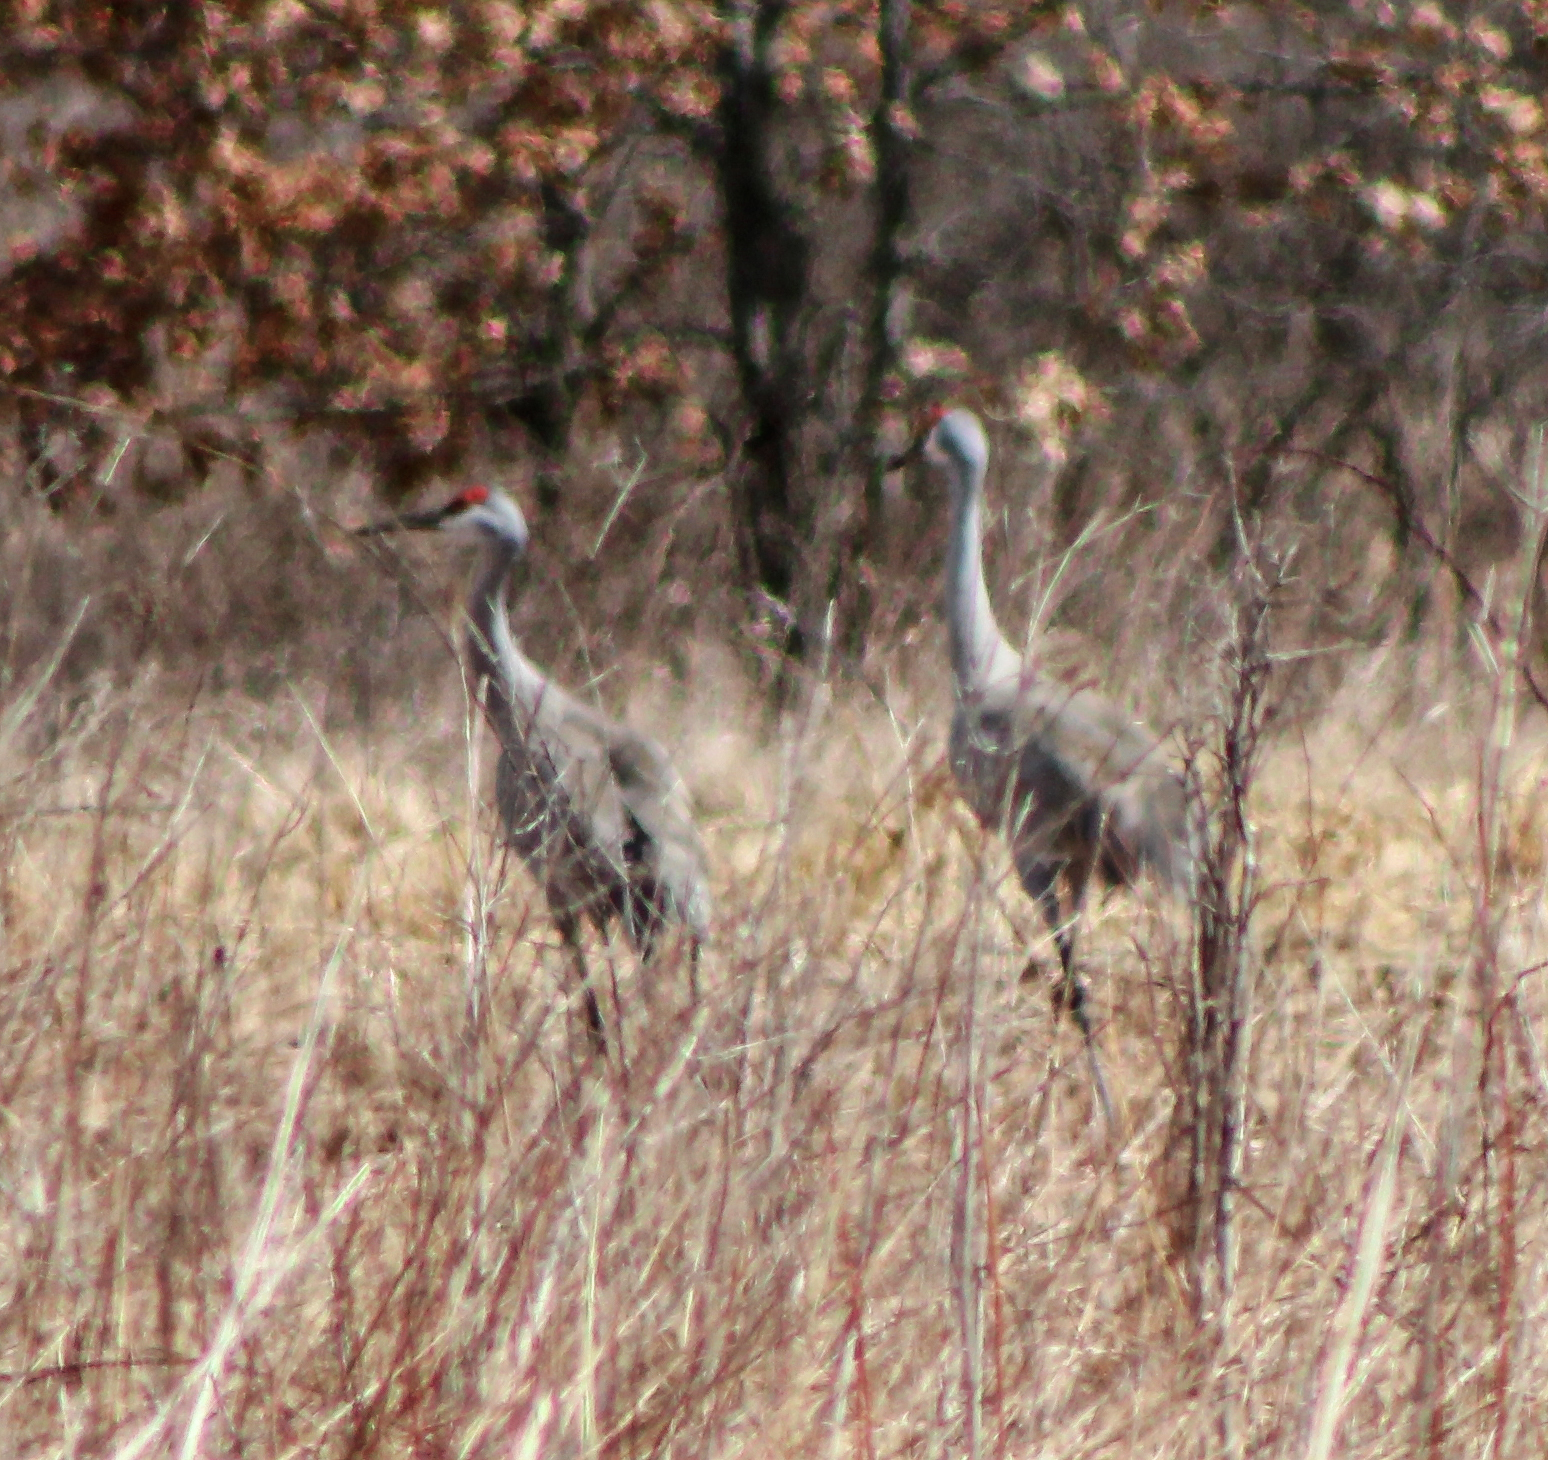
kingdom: Animalia
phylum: Chordata
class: Aves
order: Gruiformes
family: Gruidae
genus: Grus
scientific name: Grus canadensis
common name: Sandhill crane
